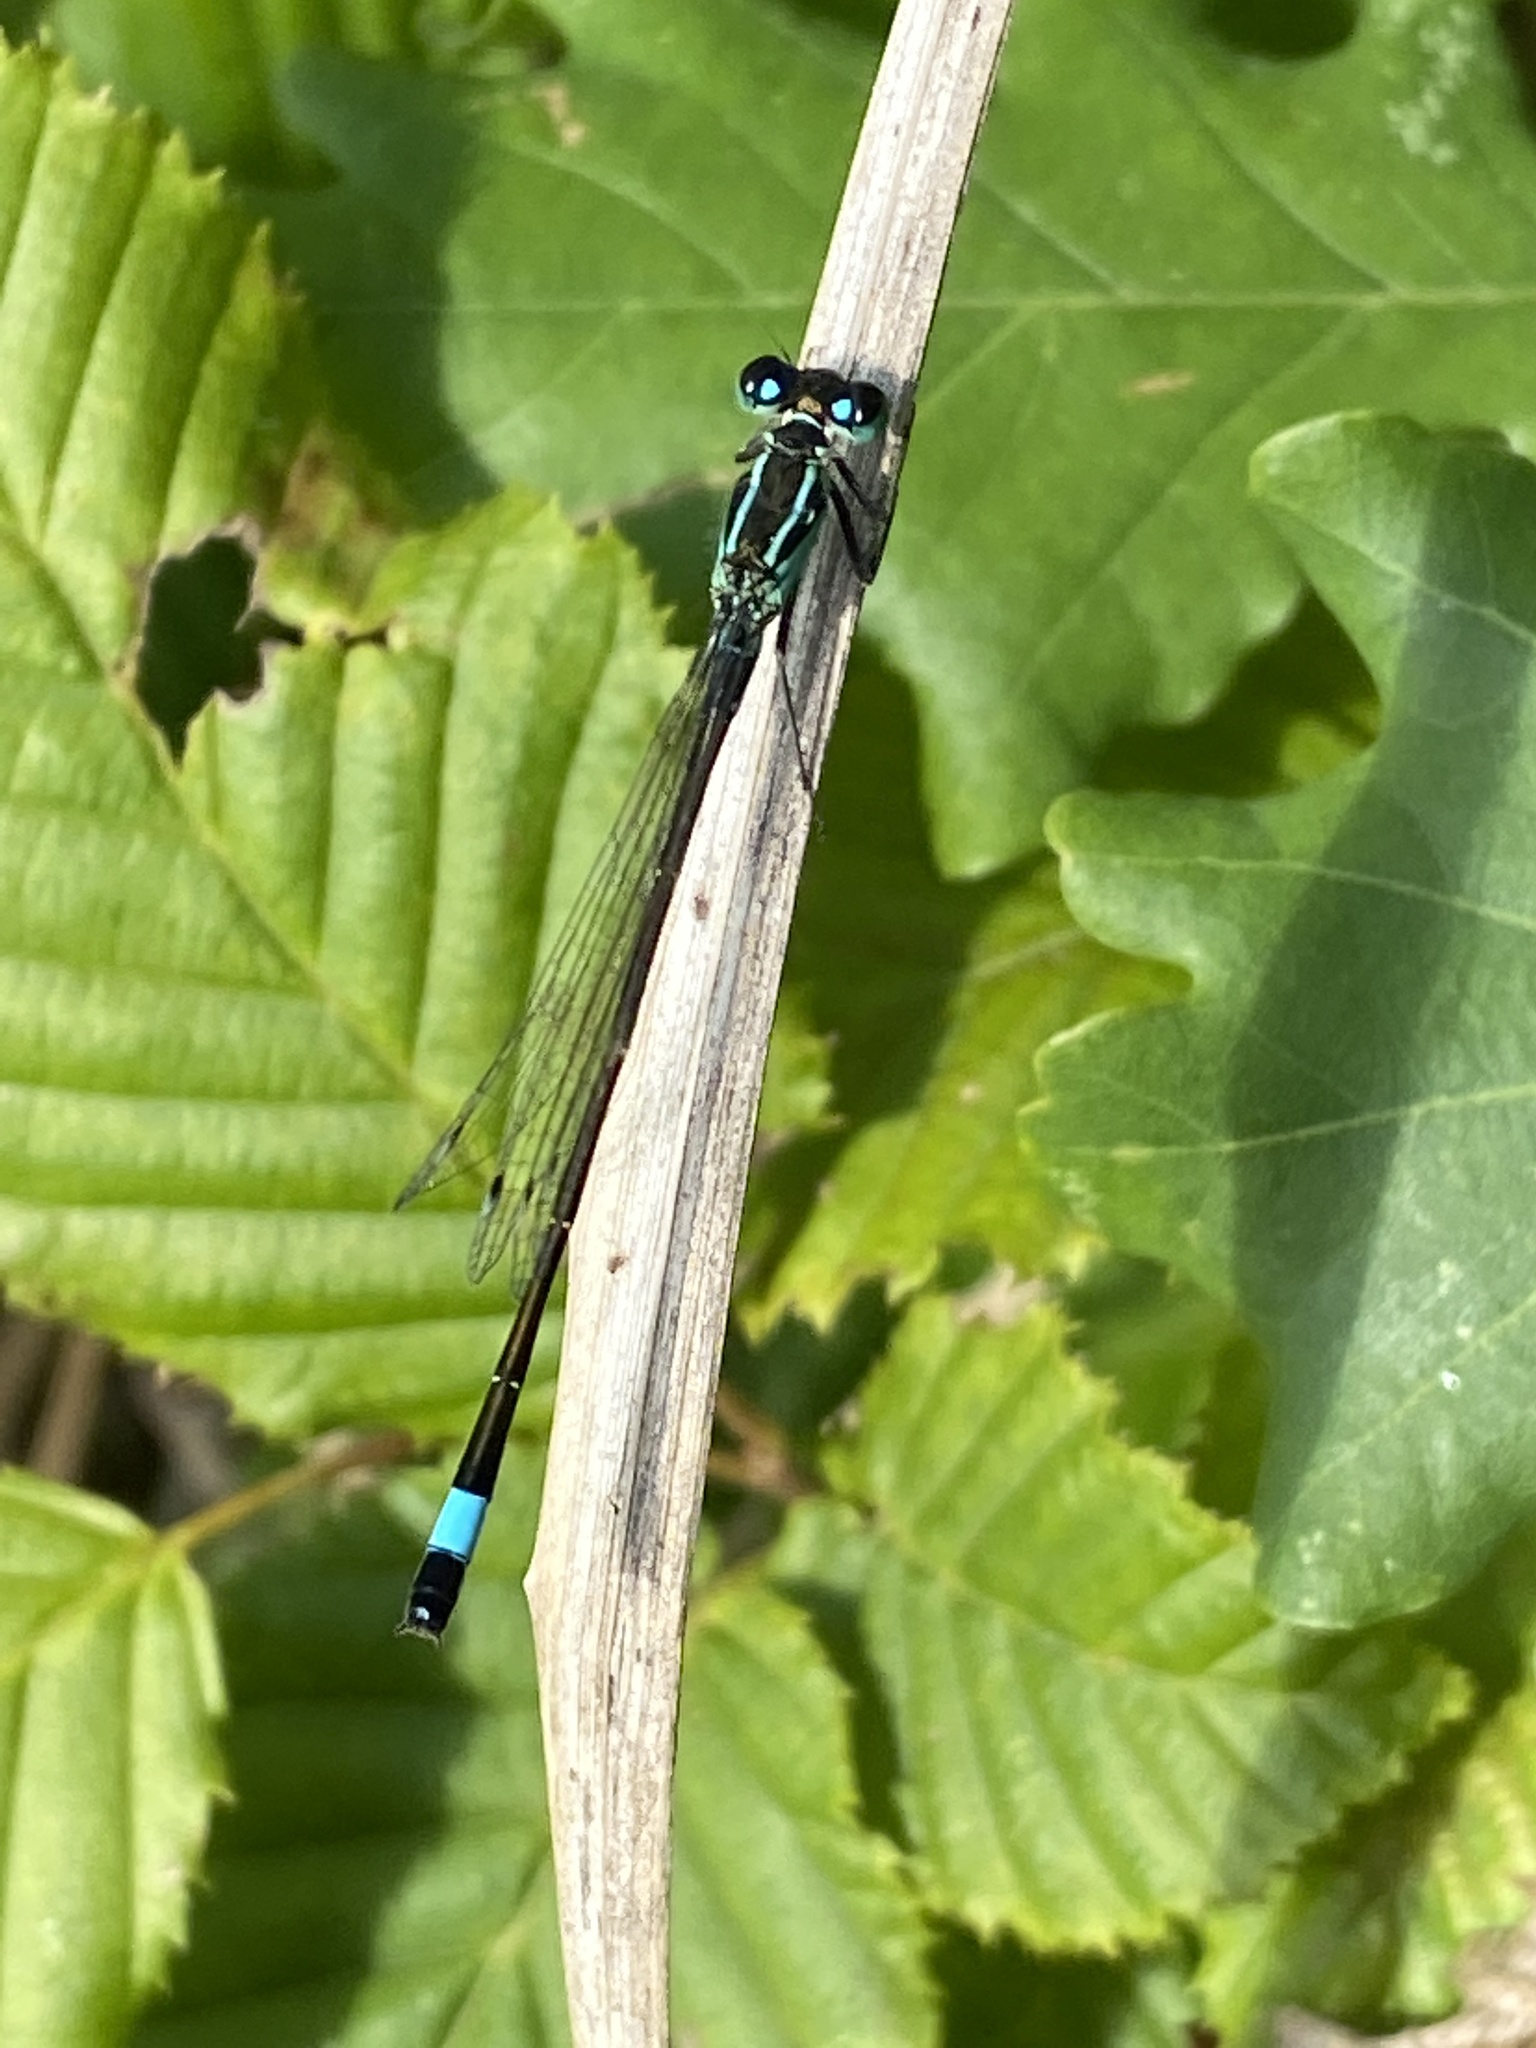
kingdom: Animalia
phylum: Arthropoda
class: Insecta
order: Odonata
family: Coenagrionidae
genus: Ischnura
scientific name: Ischnura elegans
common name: Blue-tailed damselfly
